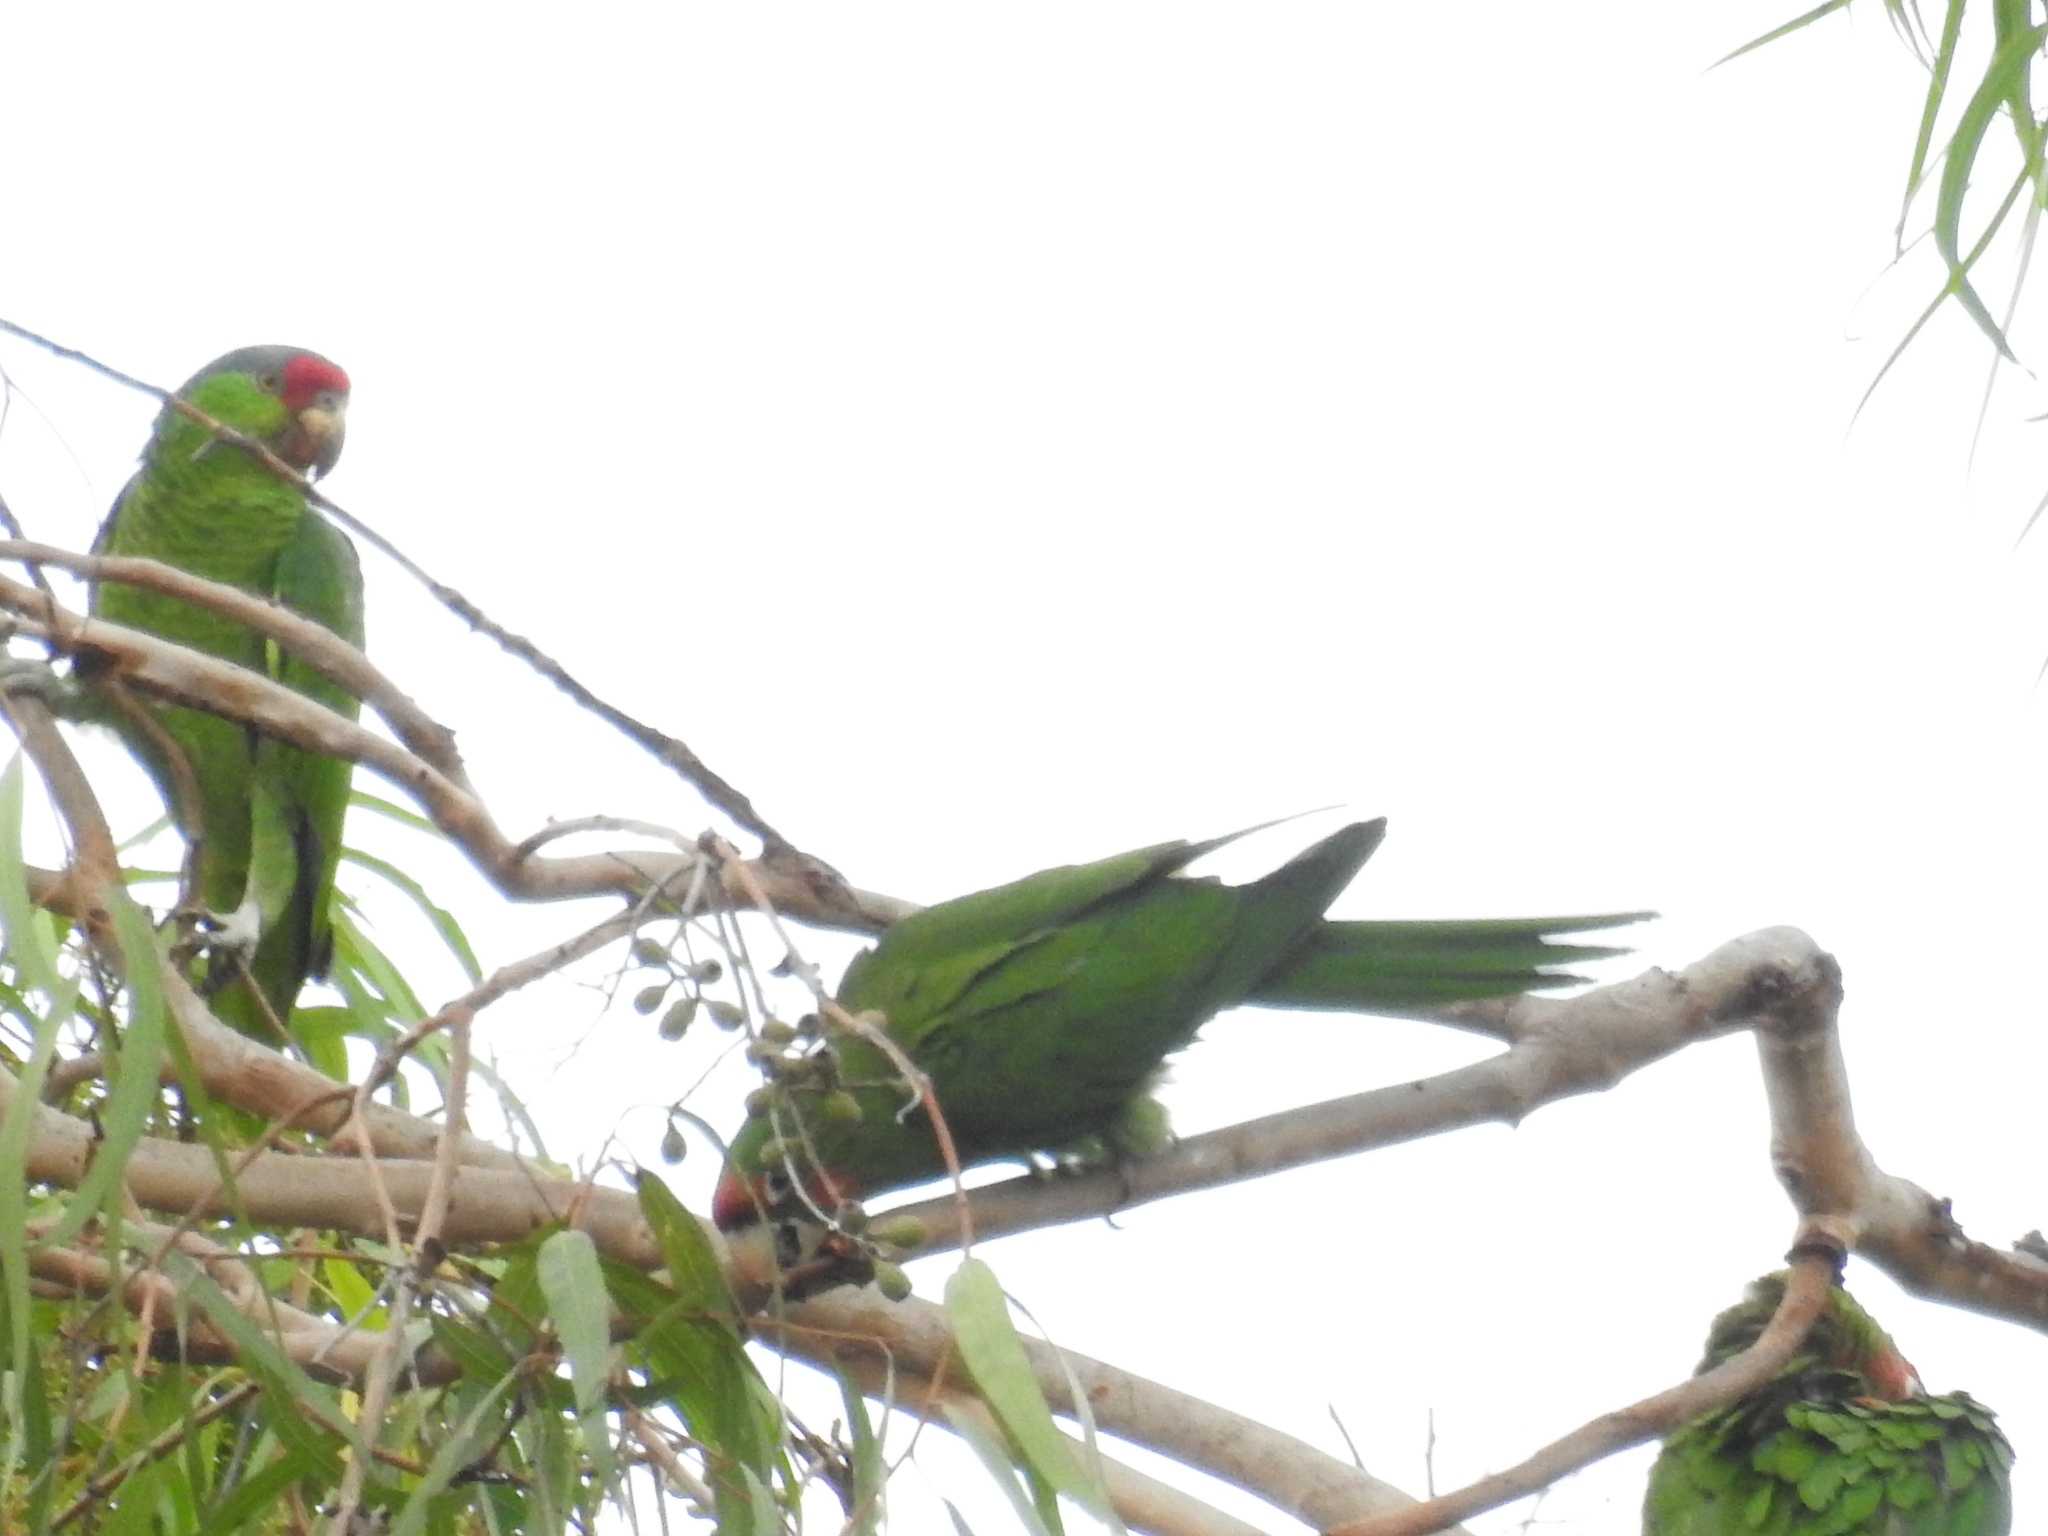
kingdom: Animalia
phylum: Chordata
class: Aves
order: Psittaciformes
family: Psittacidae
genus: Amazona
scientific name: Amazona viridigenalis
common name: Red-crowned amazon
